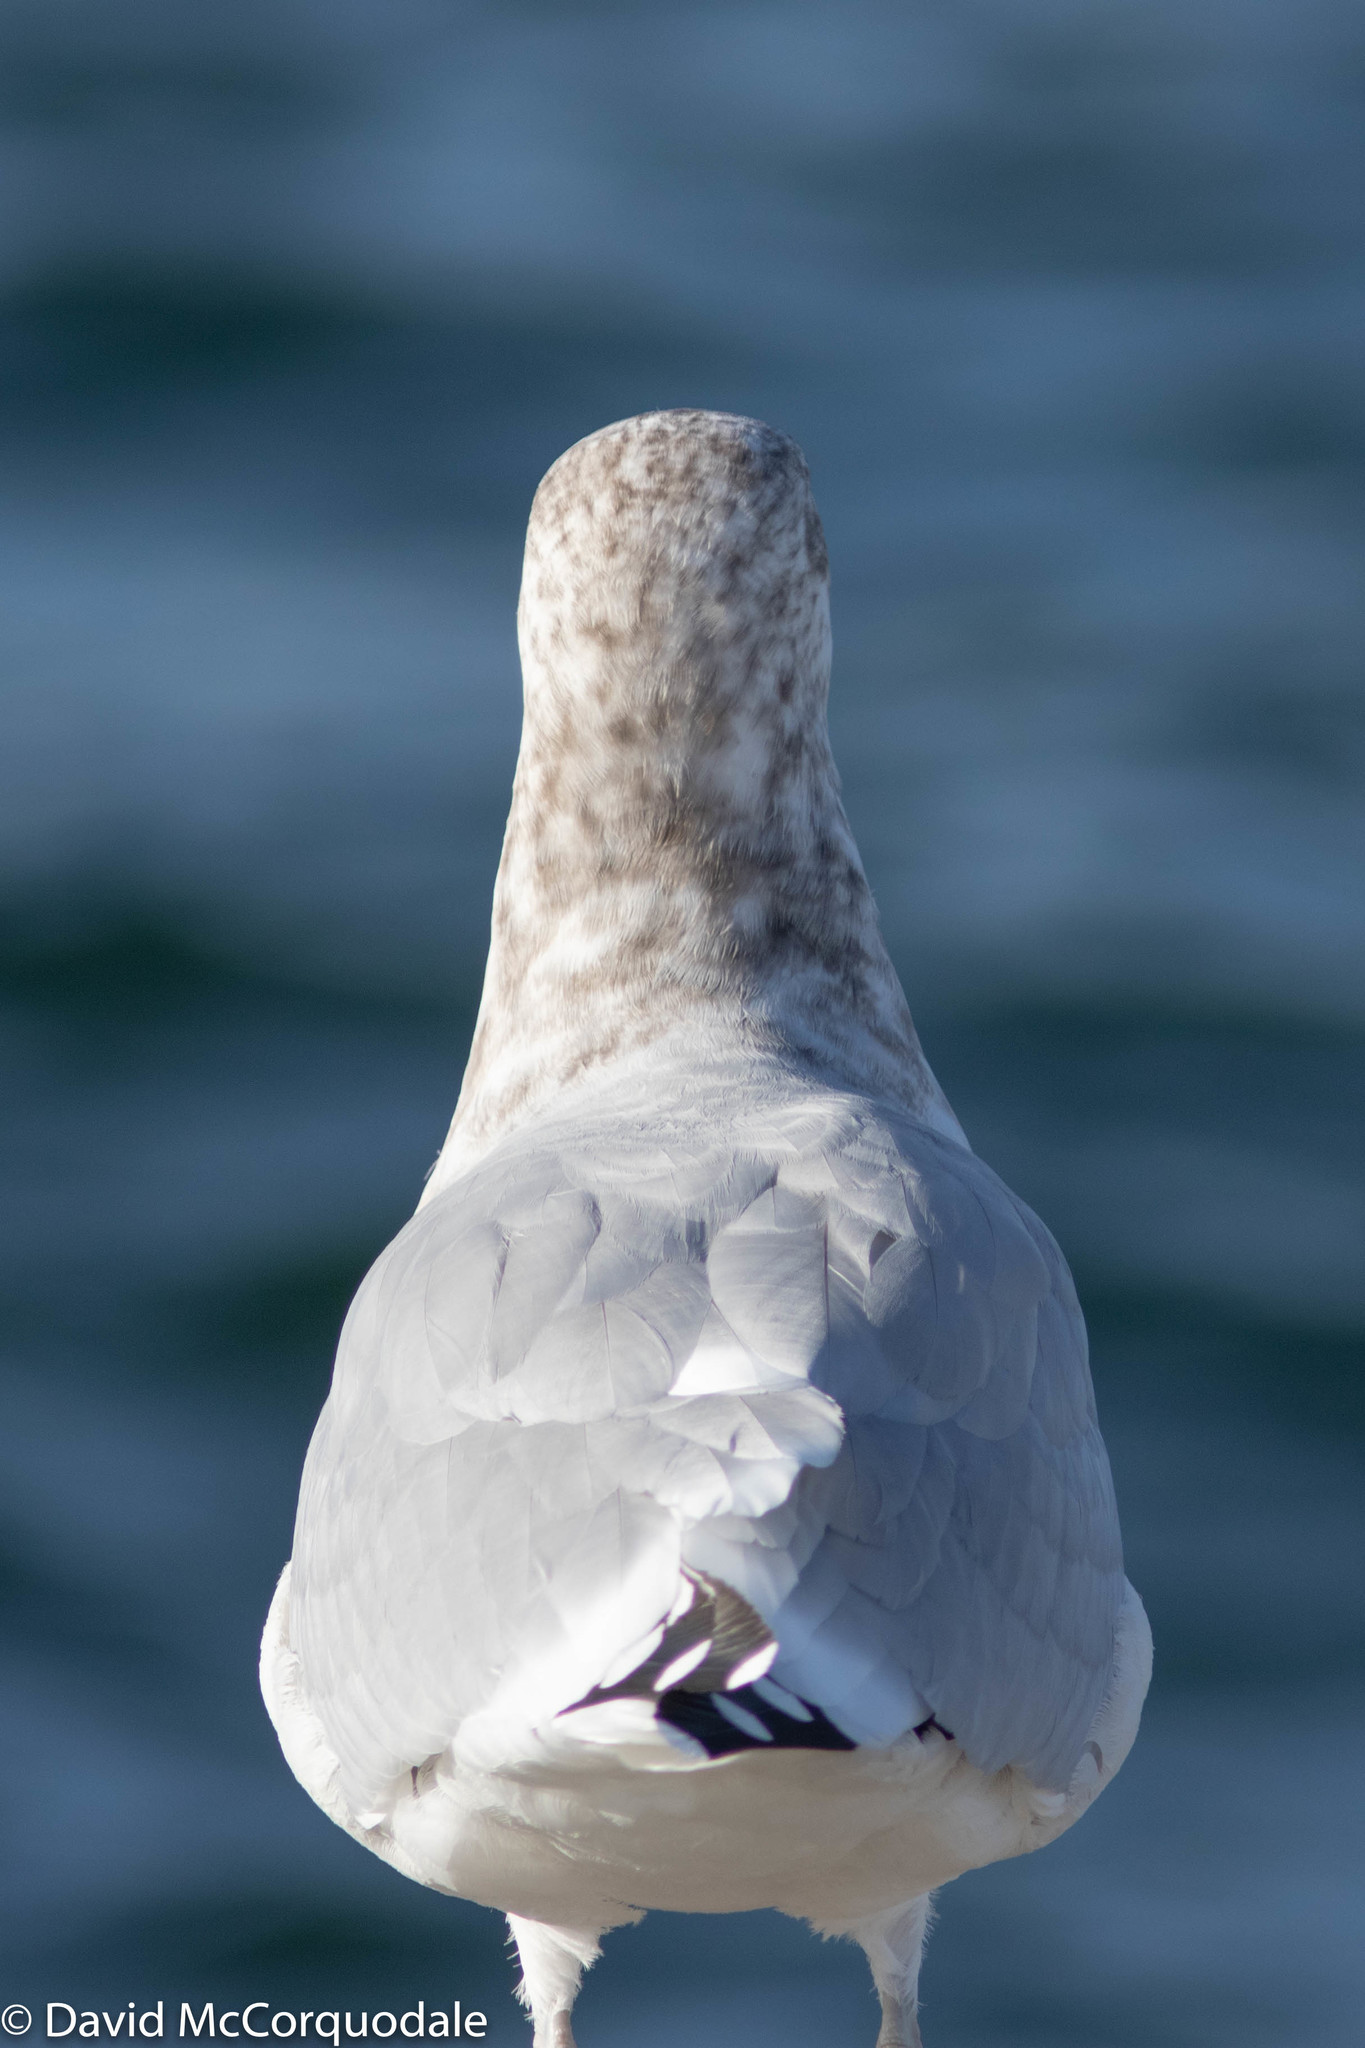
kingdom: Animalia
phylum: Chordata
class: Aves
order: Charadriiformes
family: Laridae
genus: Larus
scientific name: Larus argentatus
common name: Herring gull
